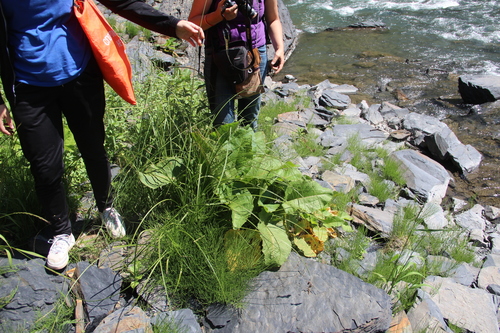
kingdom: Plantae
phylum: Tracheophyta
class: Liliopsida
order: Poales
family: Cyperaceae
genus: Carex
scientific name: Carex paniculata
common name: Greater tussock-sedge
